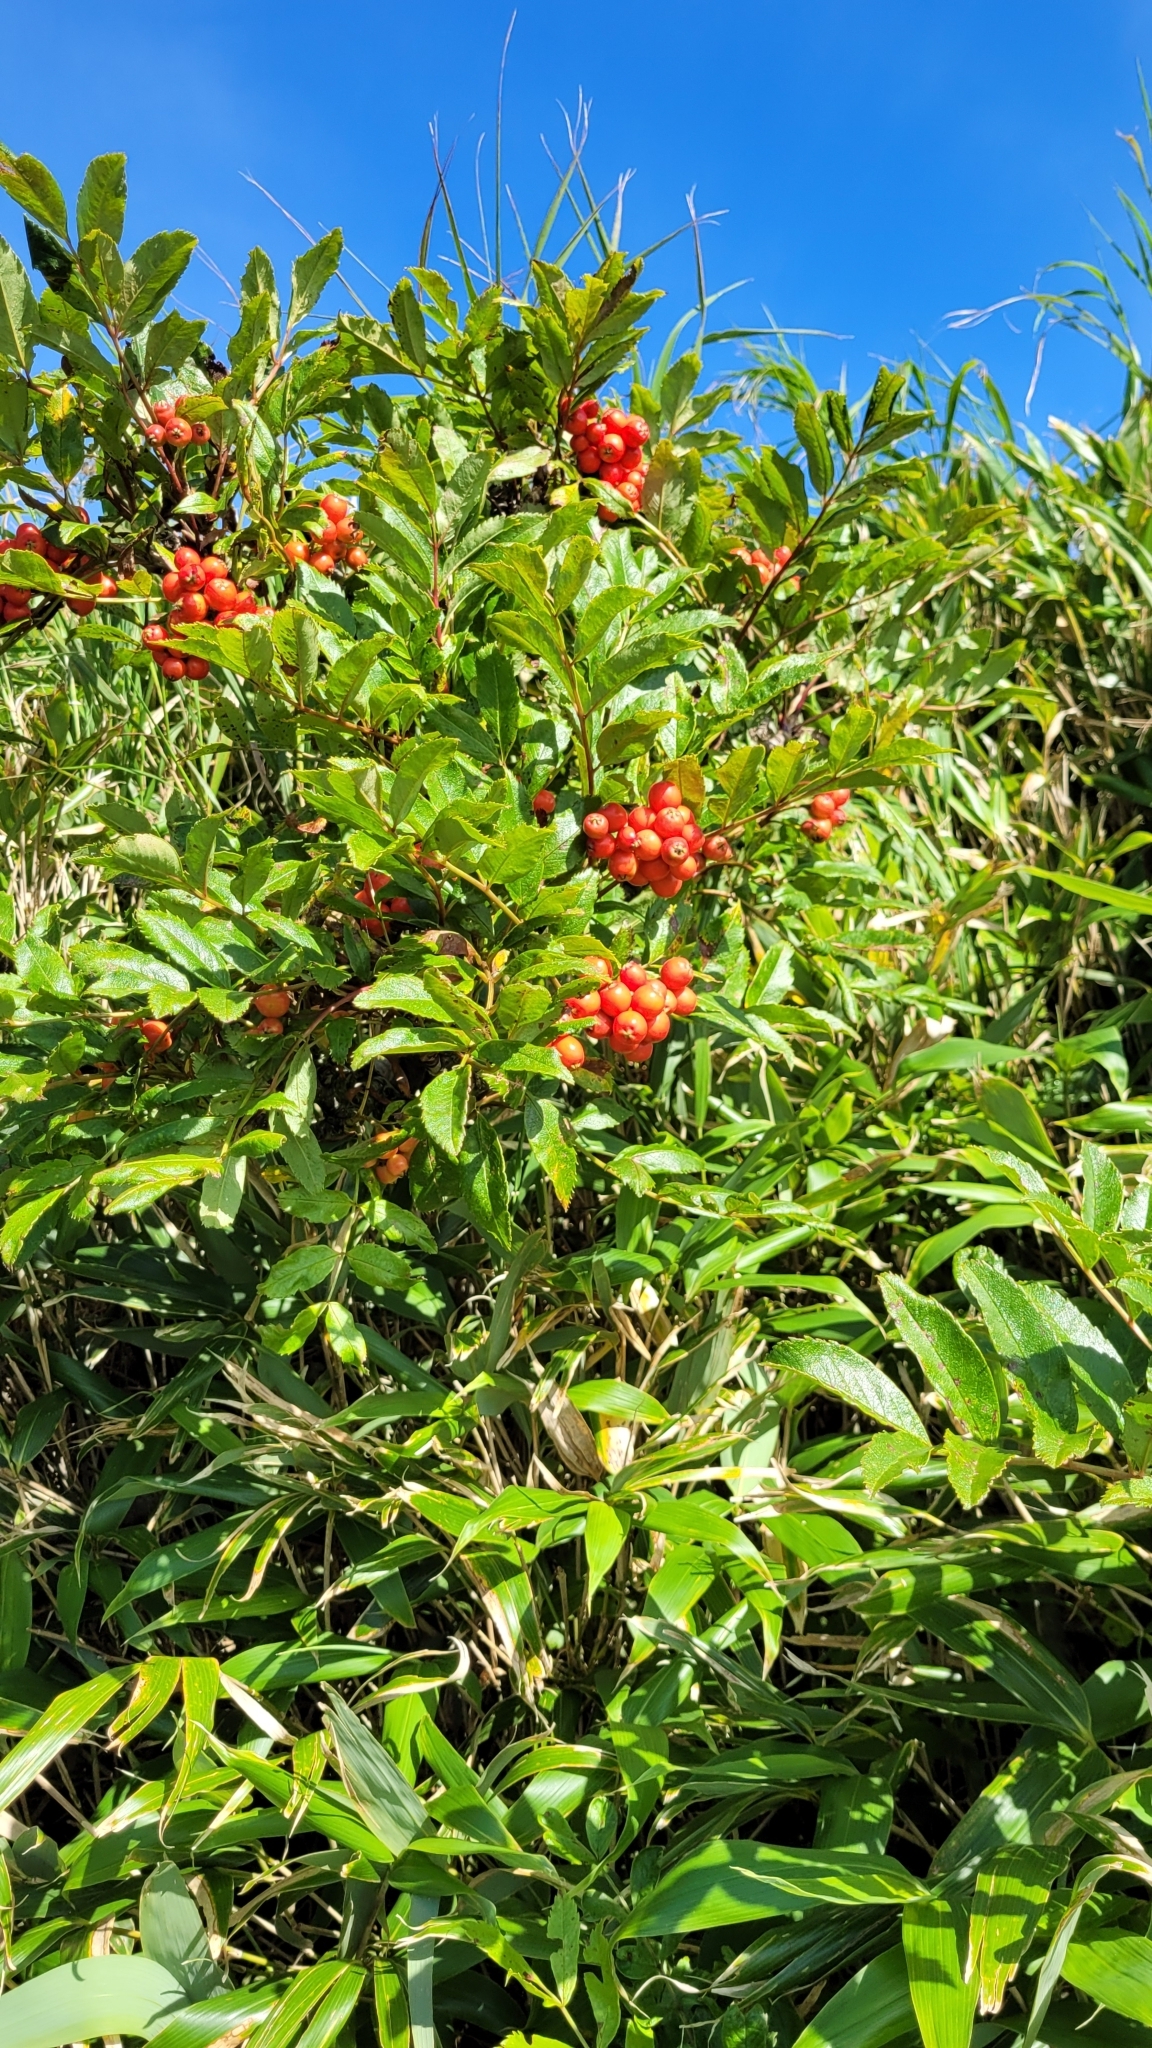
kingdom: Plantae
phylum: Tracheophyta
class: Magnoliopsida
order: Rosales
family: Rosaceae
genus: Sorbus
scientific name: Sorbus sambucifolia
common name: Siberian mountain-ash
